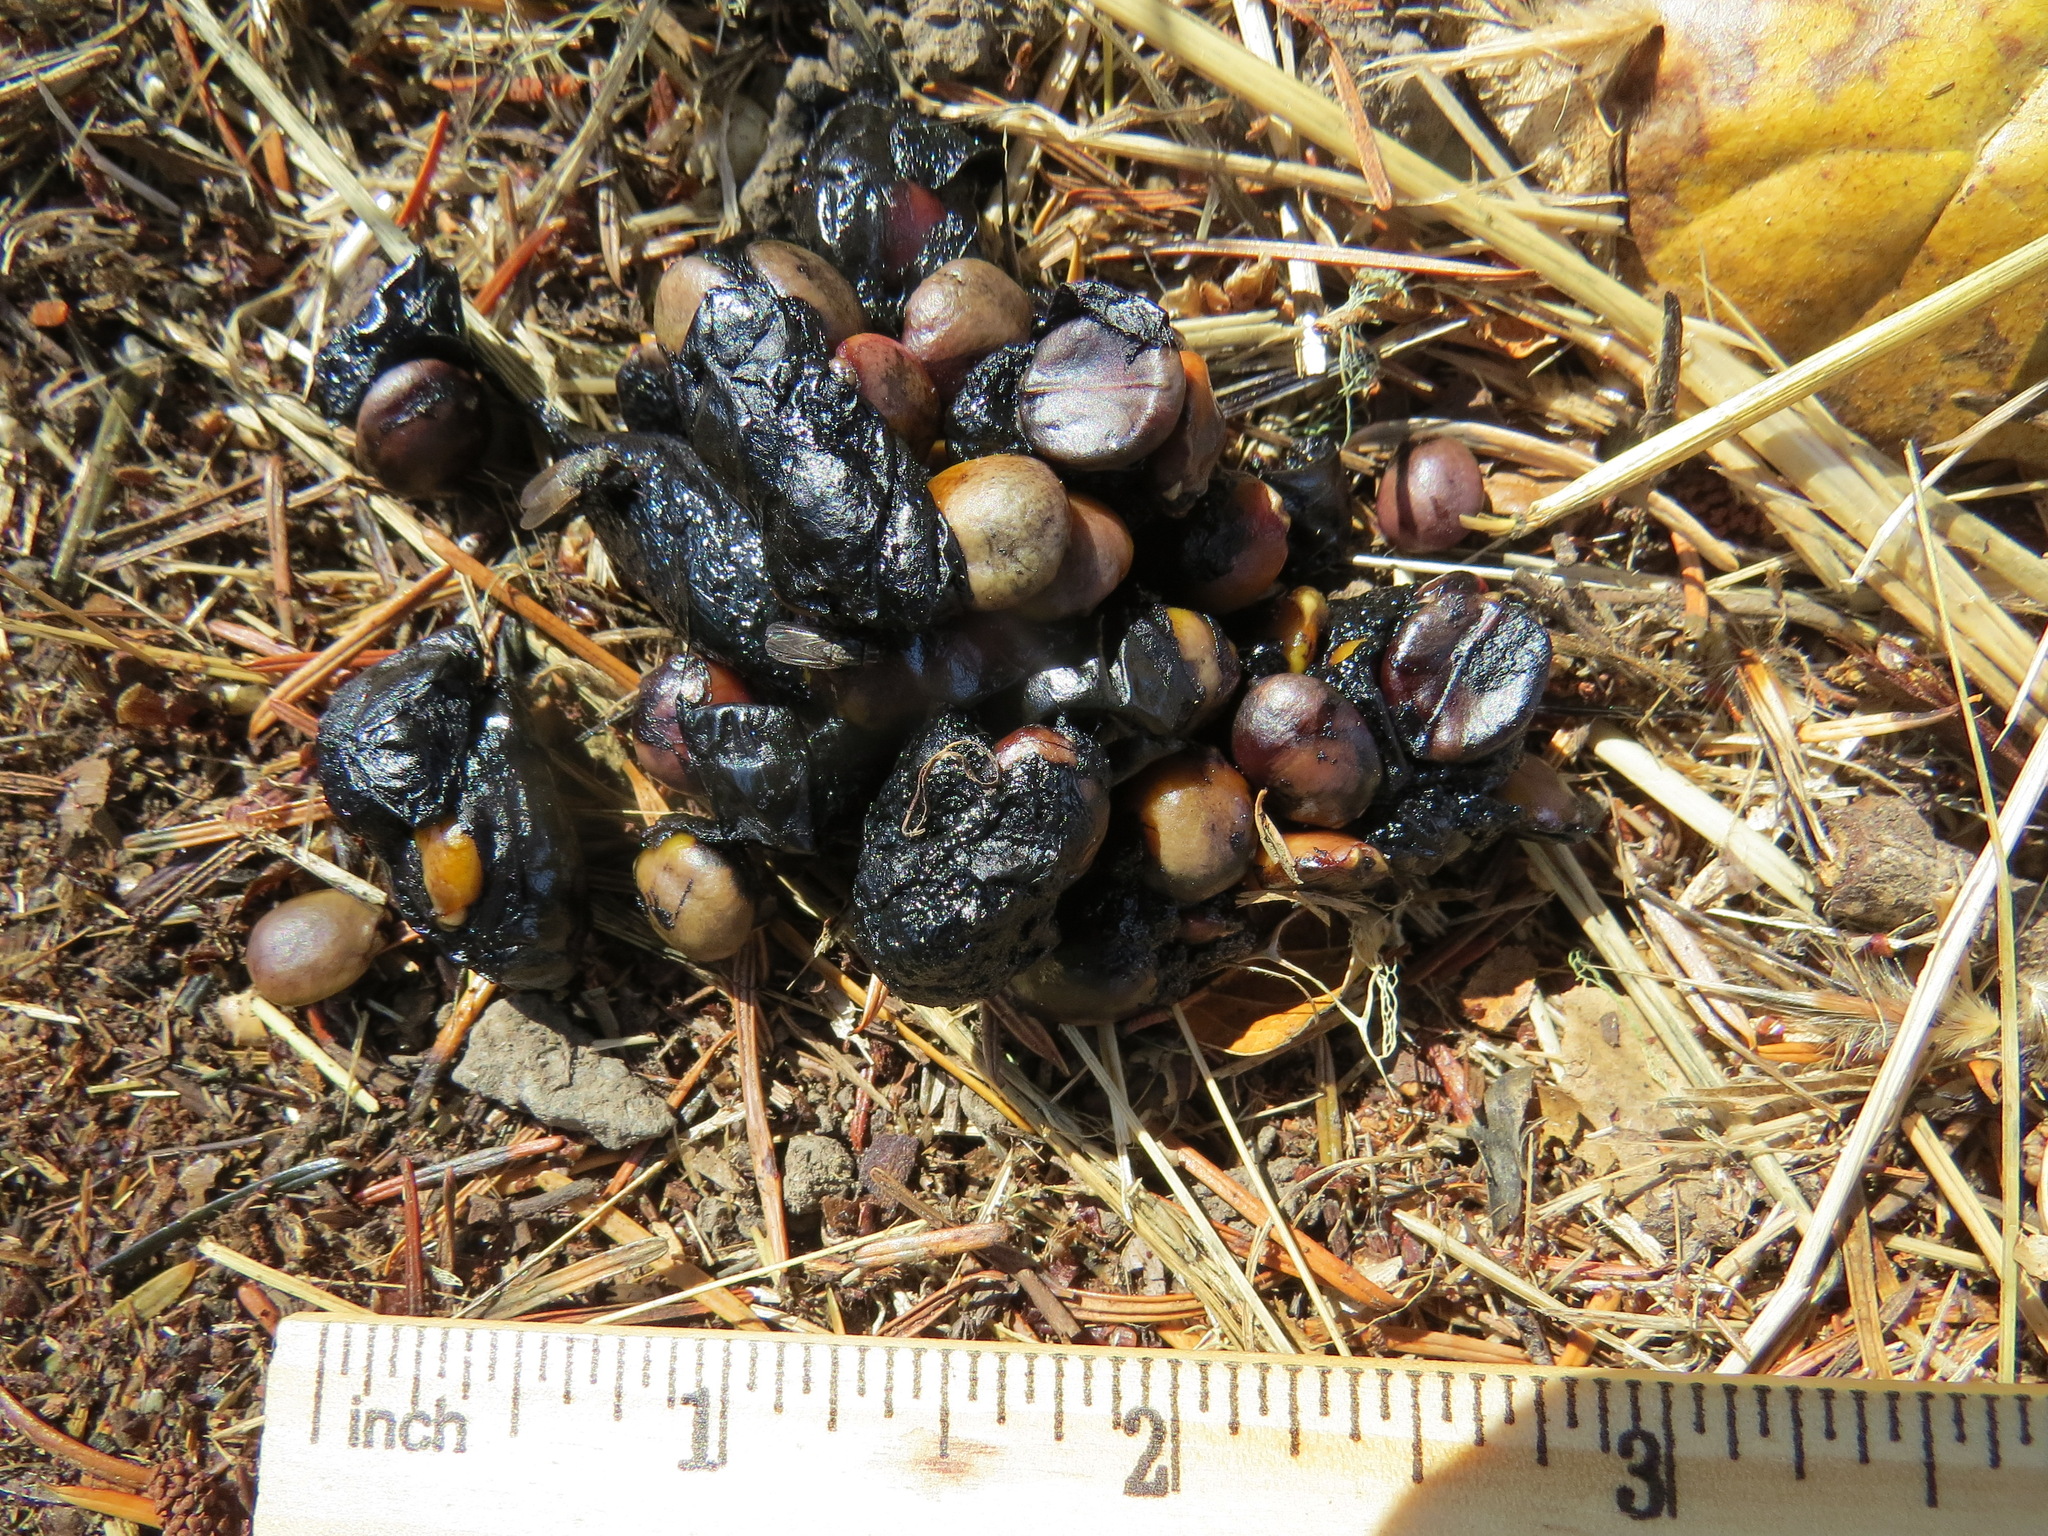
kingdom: Animalia
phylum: Chordata
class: Mammalia
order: Carnivora
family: Canidae
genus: Urocyon
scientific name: Urocyon cinereoargenteus
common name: Gray fox
